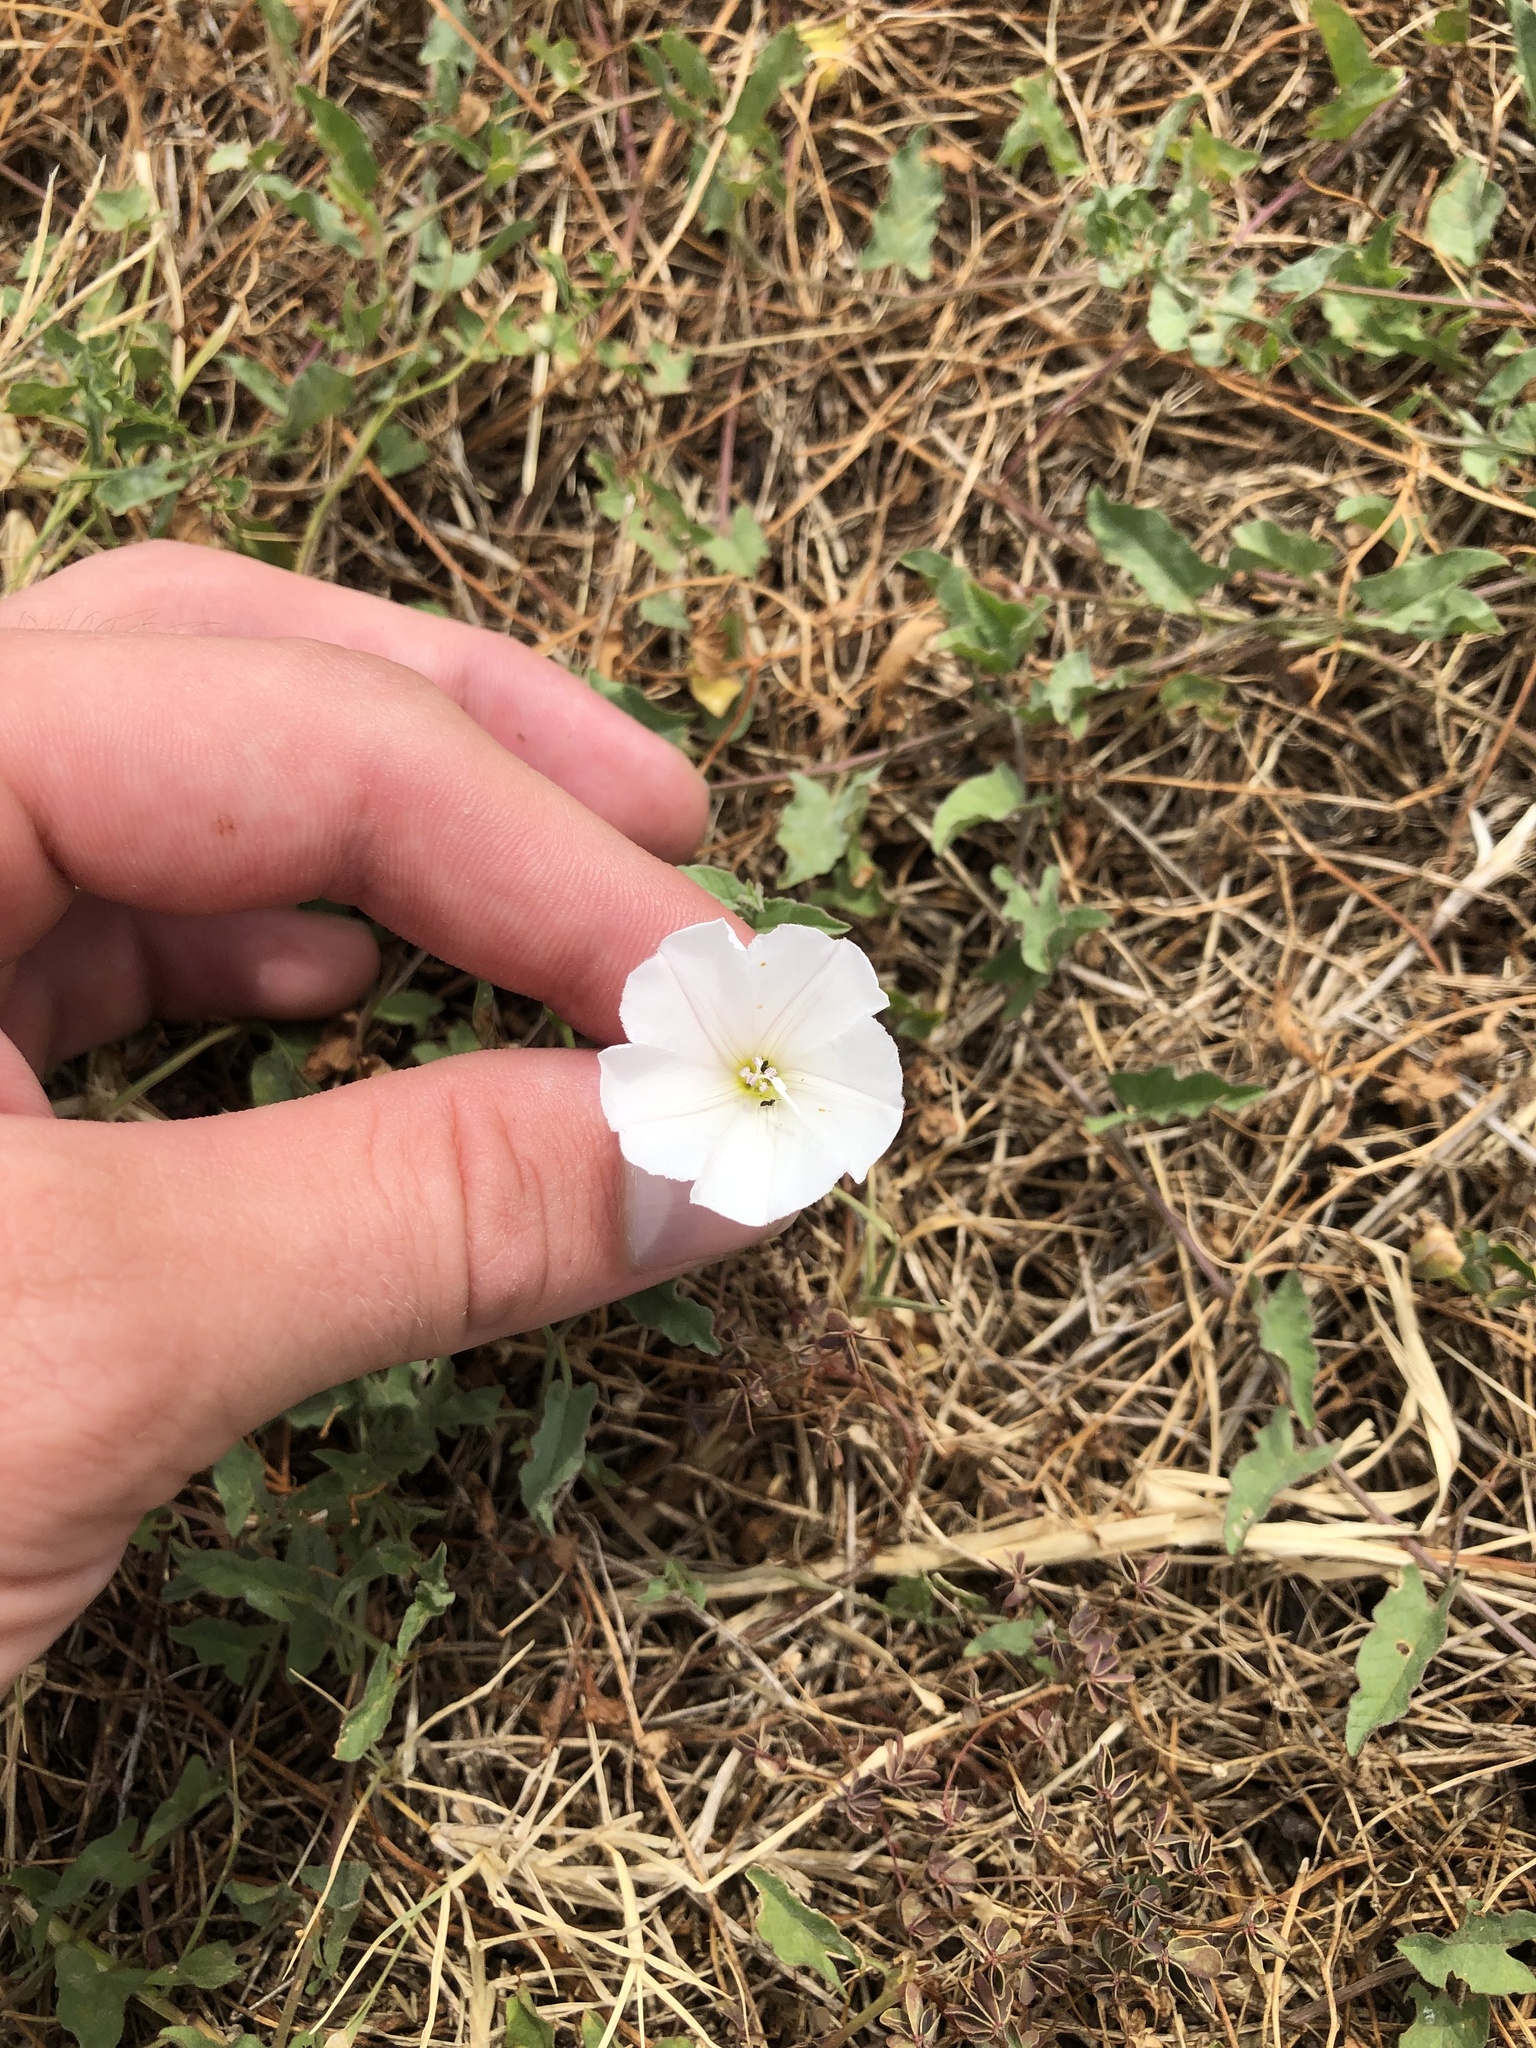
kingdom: Plantae
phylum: Tracheophyta
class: Magnoliopsida
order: Solanales
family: Convolvulaceae
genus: Convolvulus
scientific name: Convolvulus arvensis
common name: Field bindweed
